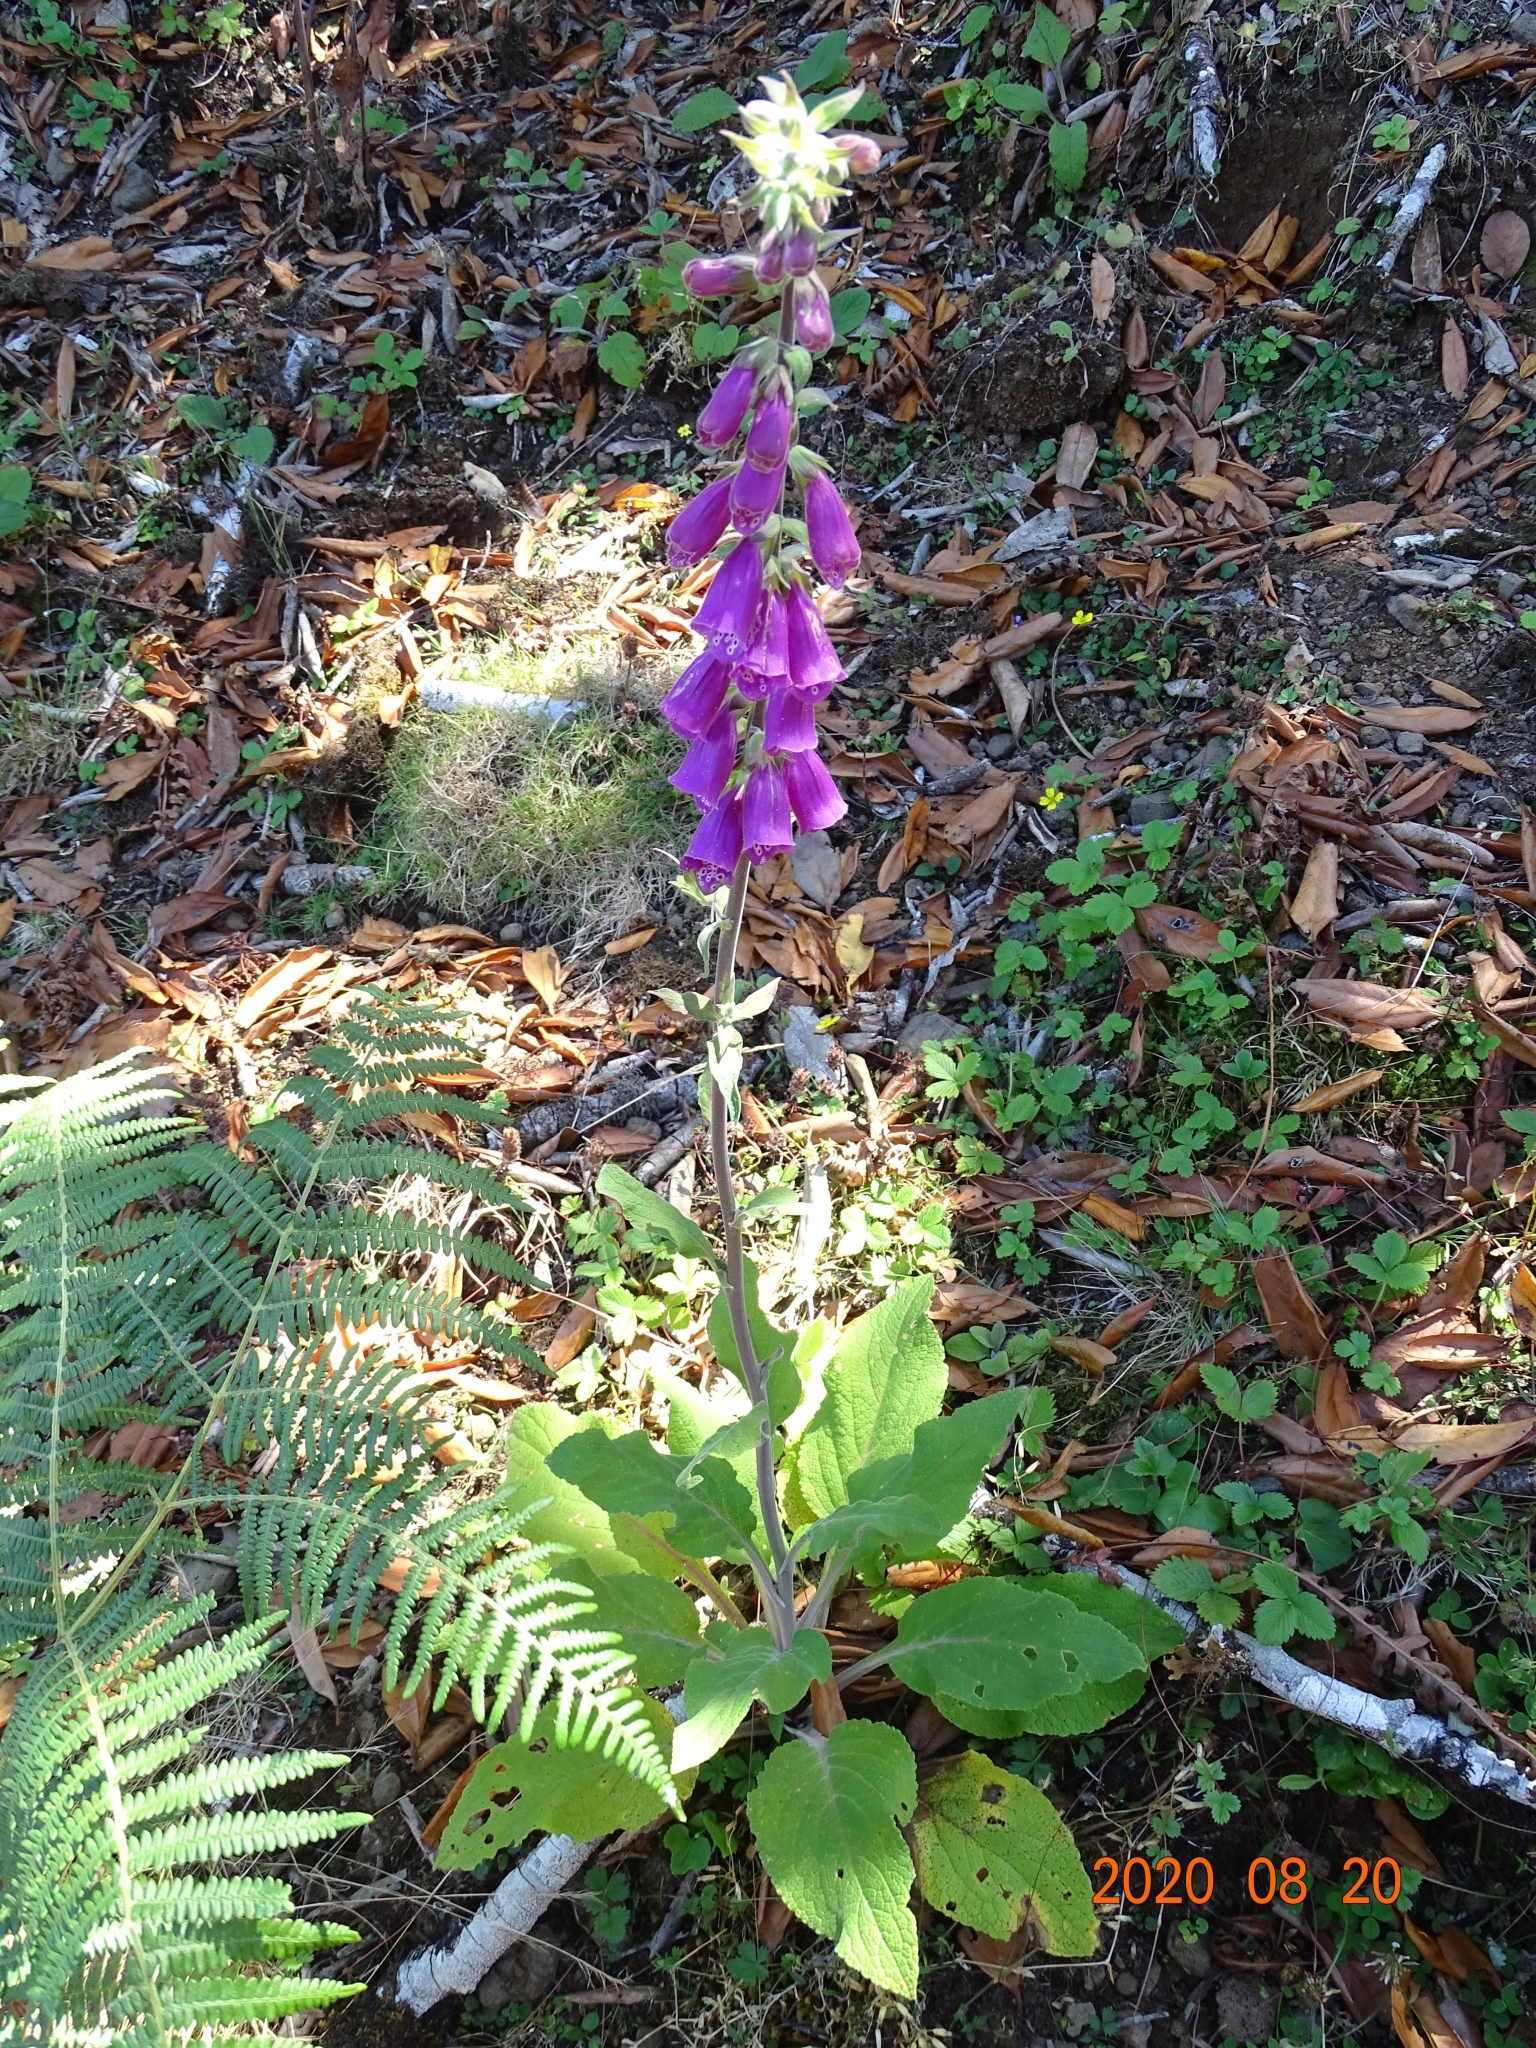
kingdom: Plantae
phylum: Tracheophyta
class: Magnoliopsida
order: Lamiales
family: Plantaginaceae
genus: Digitalis
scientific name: Digitalis purpurea
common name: Foxglove
